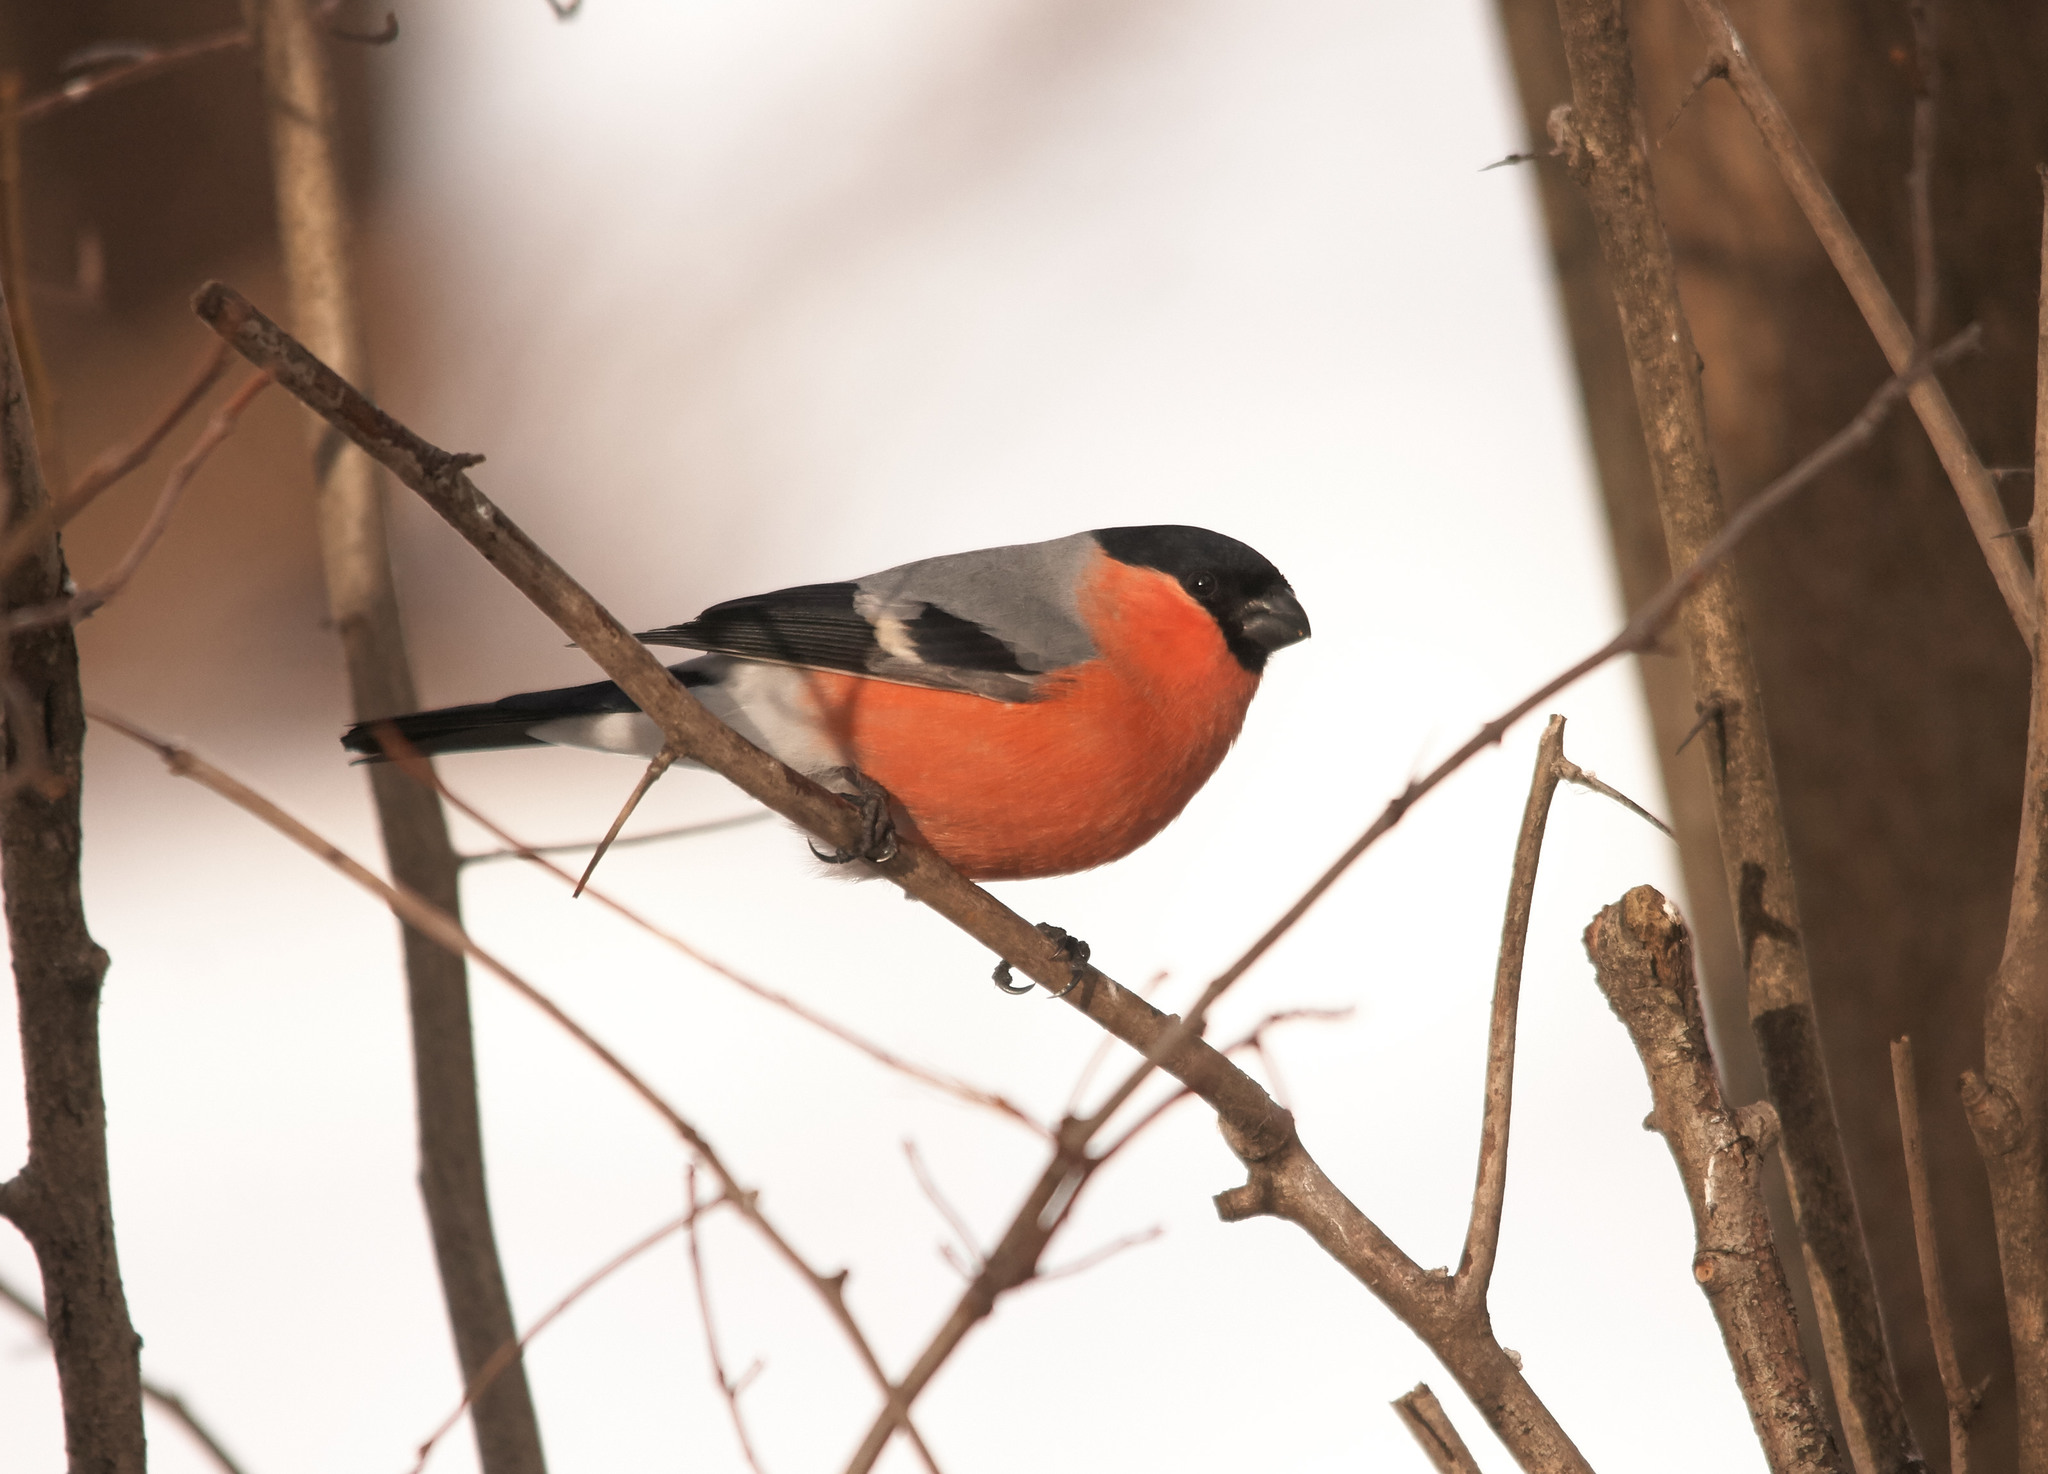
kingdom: Animalia
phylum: Chordata
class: Aves
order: Passeriformes
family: Fringillidae
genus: Pyrrhula
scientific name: Pyrrhula pyrrhula
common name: Eurasian bullfinch
